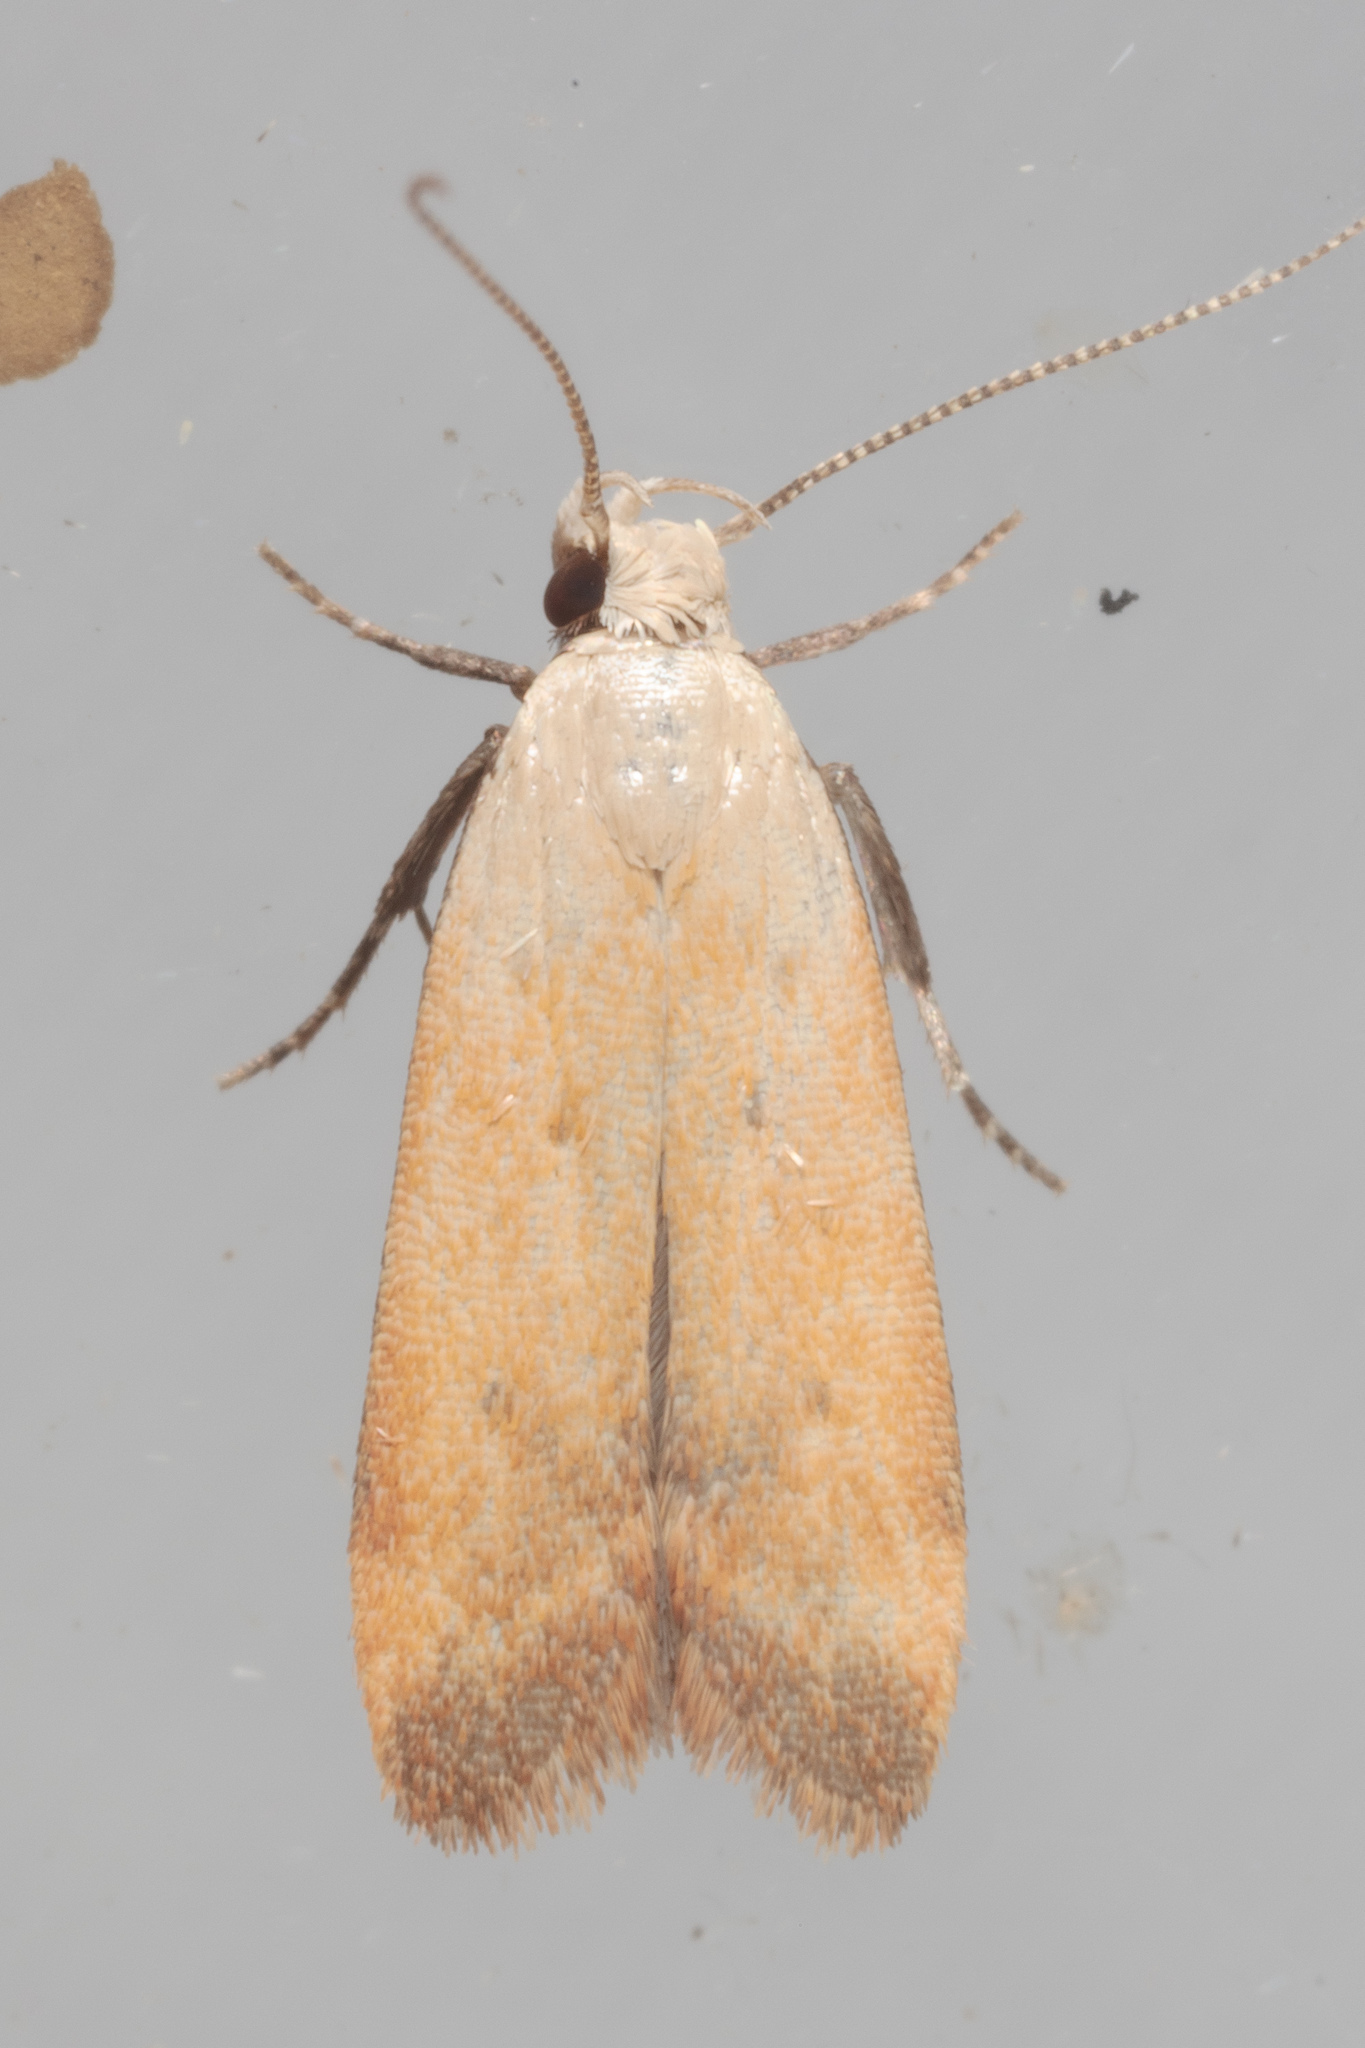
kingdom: Animalia
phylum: Arthropoda
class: Insecta
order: Lepidoptera
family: Gelechiidae
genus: Anacampsis
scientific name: Anacampsis fullonella
